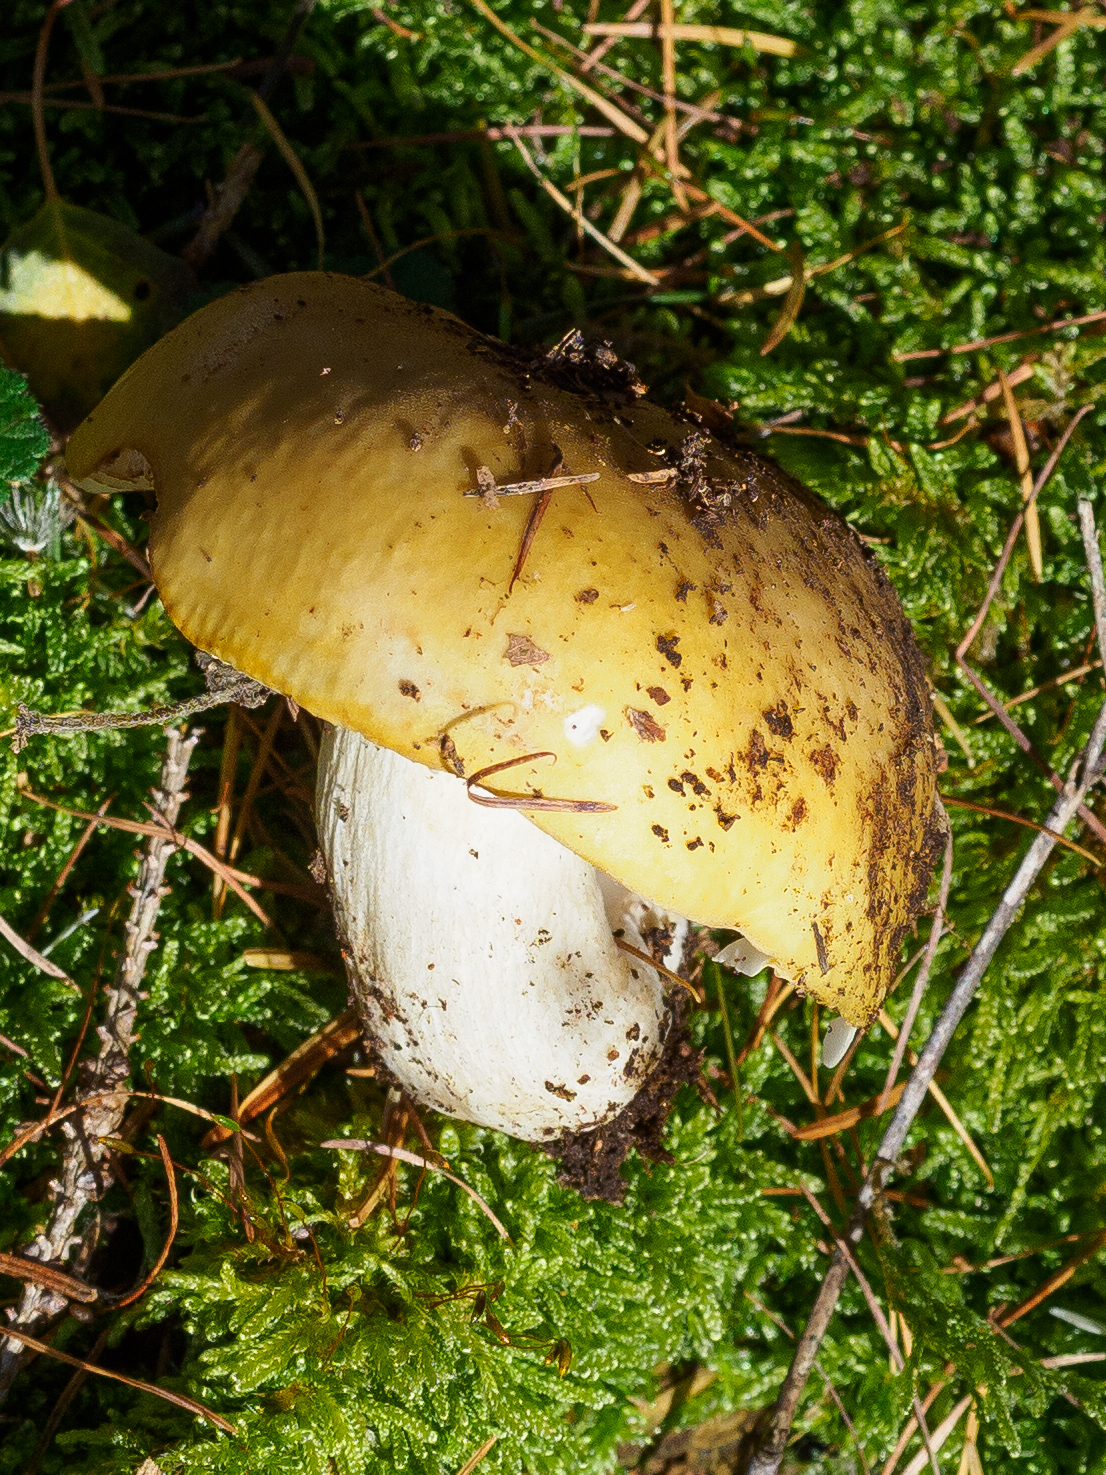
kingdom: Fungi
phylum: Basidiomycota
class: Agaricomycetes
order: Russulales
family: Russulaceae
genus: Russula
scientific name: Russula ochroleuca
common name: Common yellow russula
